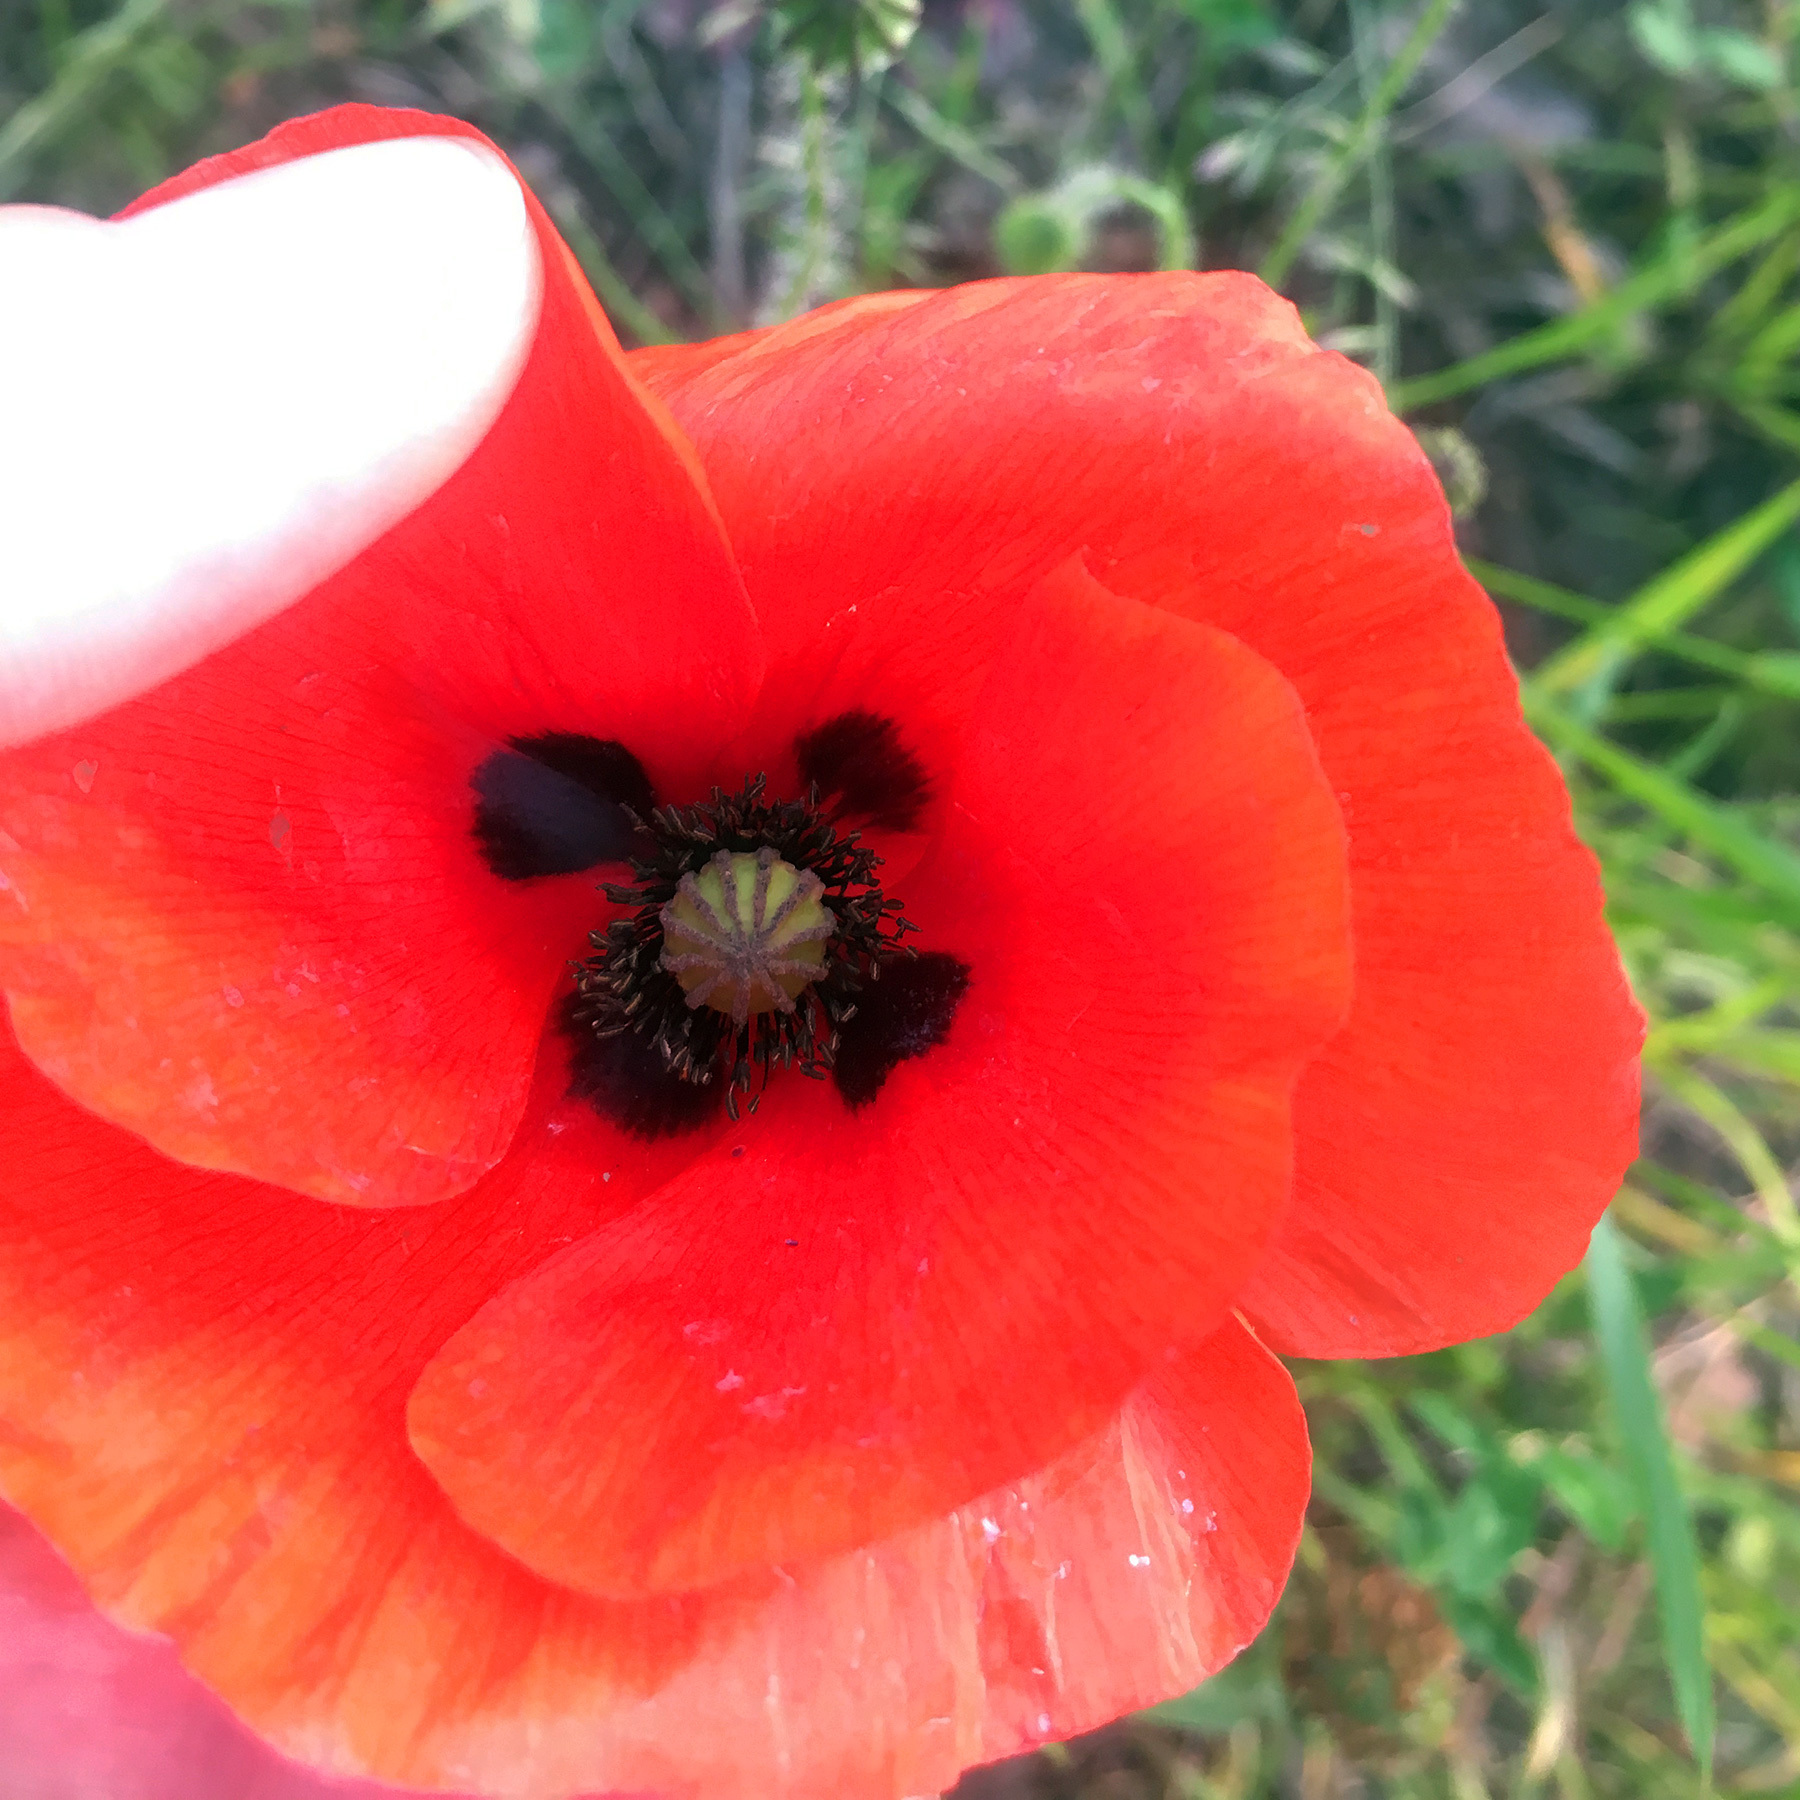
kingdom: Plantae
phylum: Tracheophyta
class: Magnoliopsida
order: Ranunculales
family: Papaveraceae
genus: Papaver
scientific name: Papaver rhoeas
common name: Corn poppy
